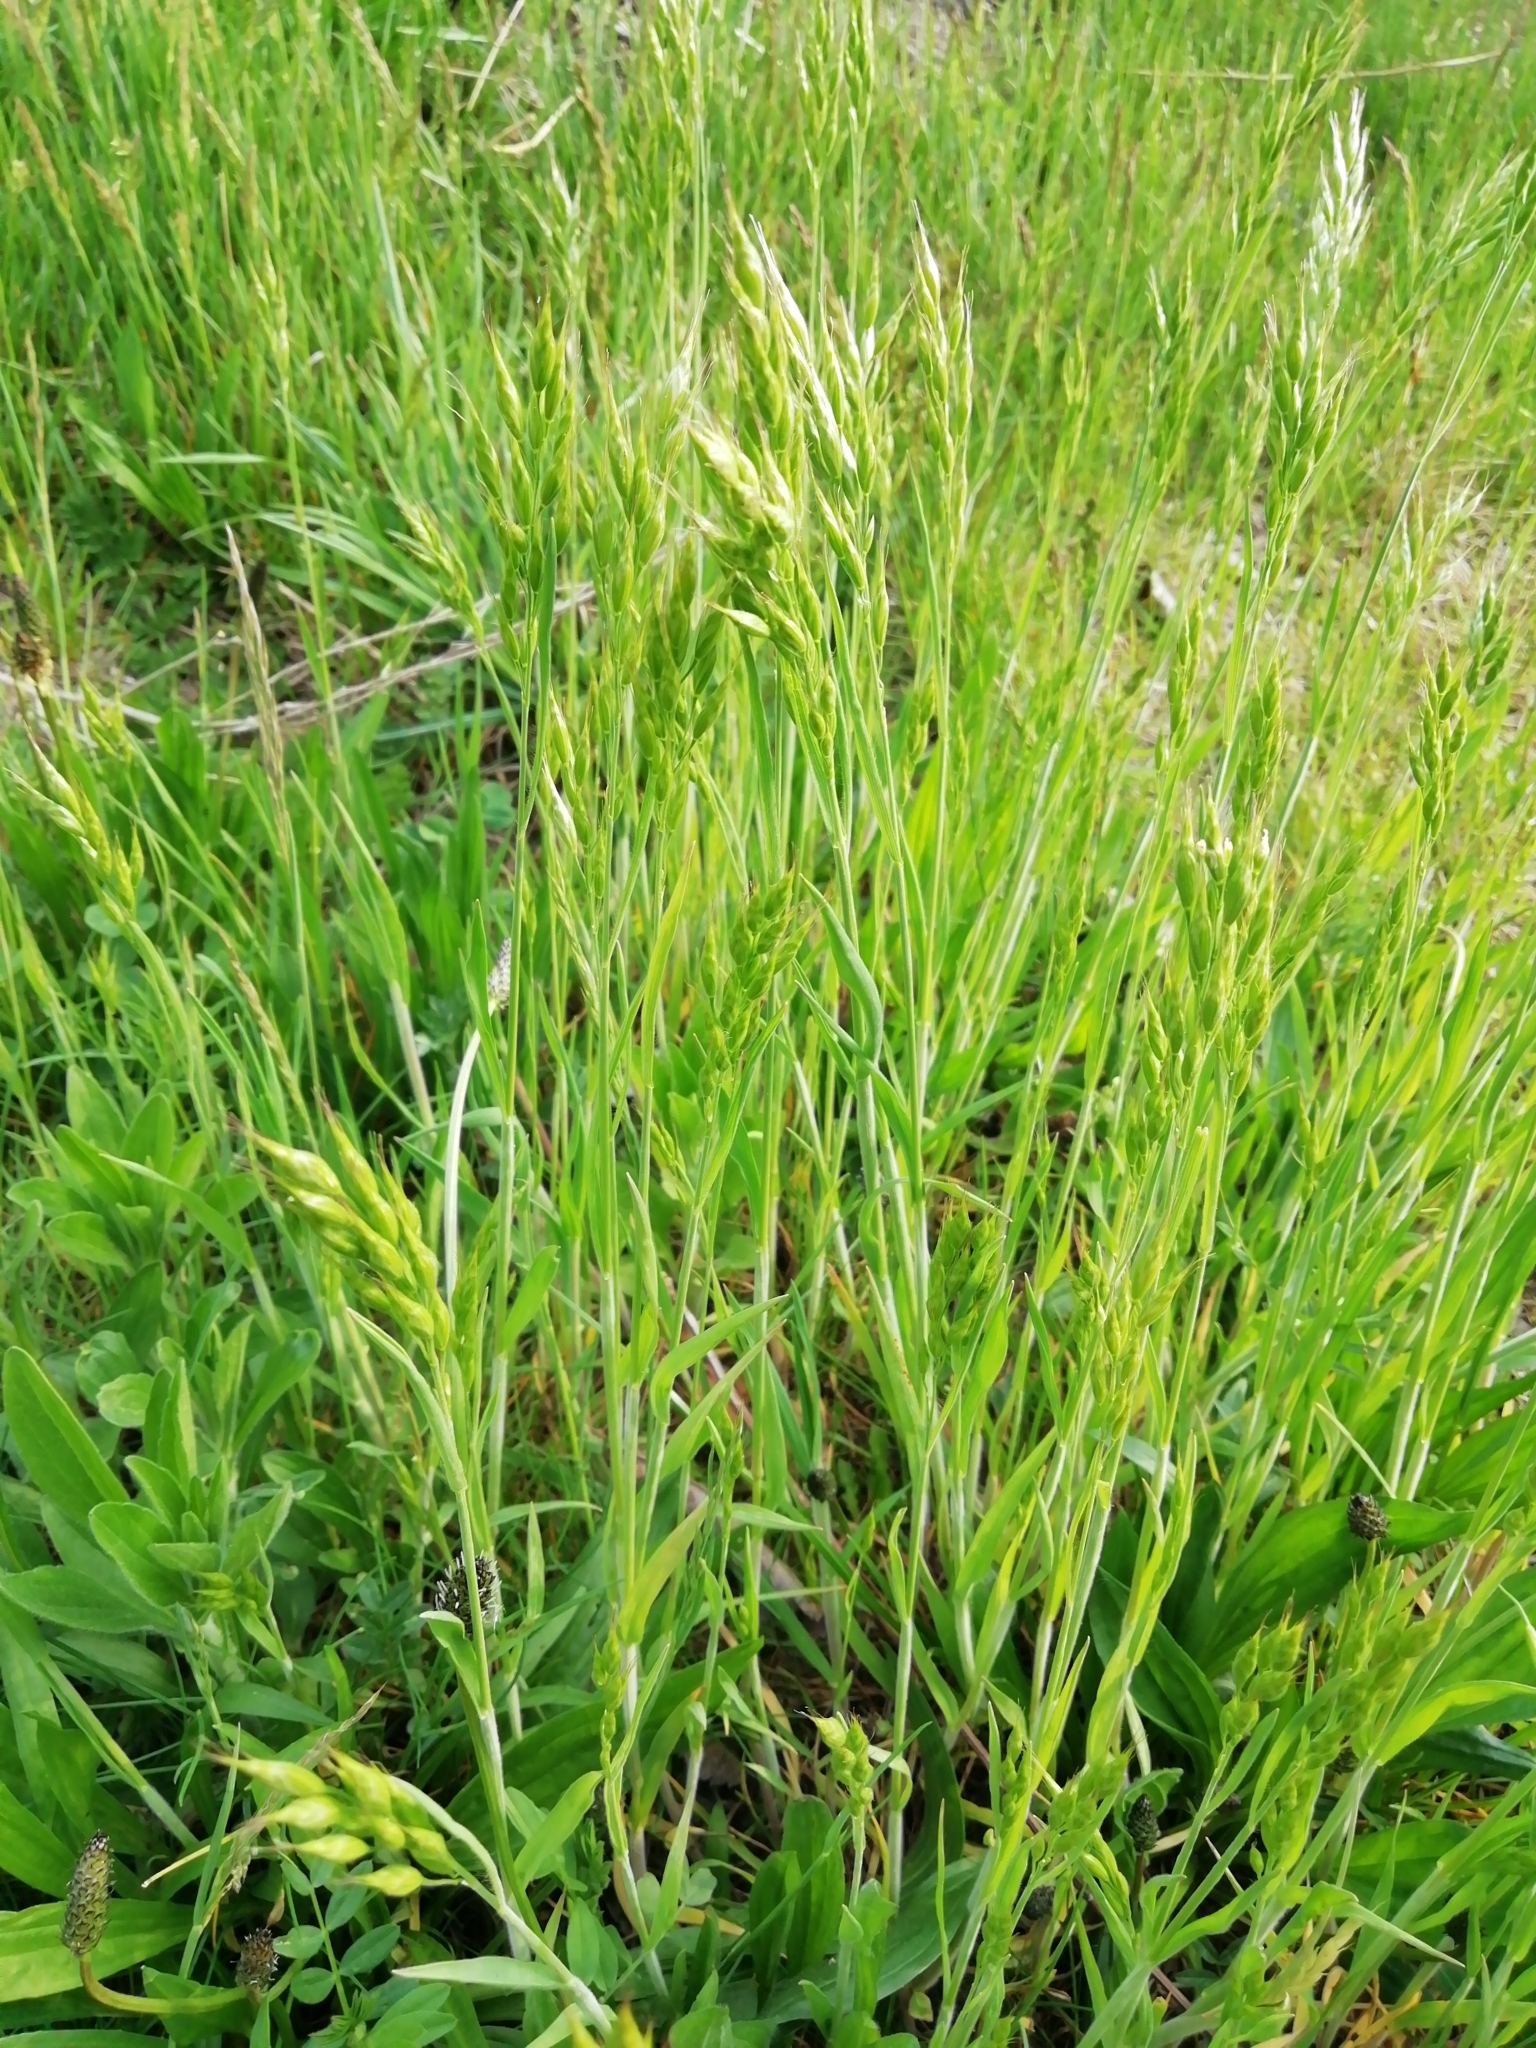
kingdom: Plantae
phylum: Tracheophyta
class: Liliopsida
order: Poales
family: Poaceae
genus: Bromus
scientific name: Bromus hordeaceus
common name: Soft brome
